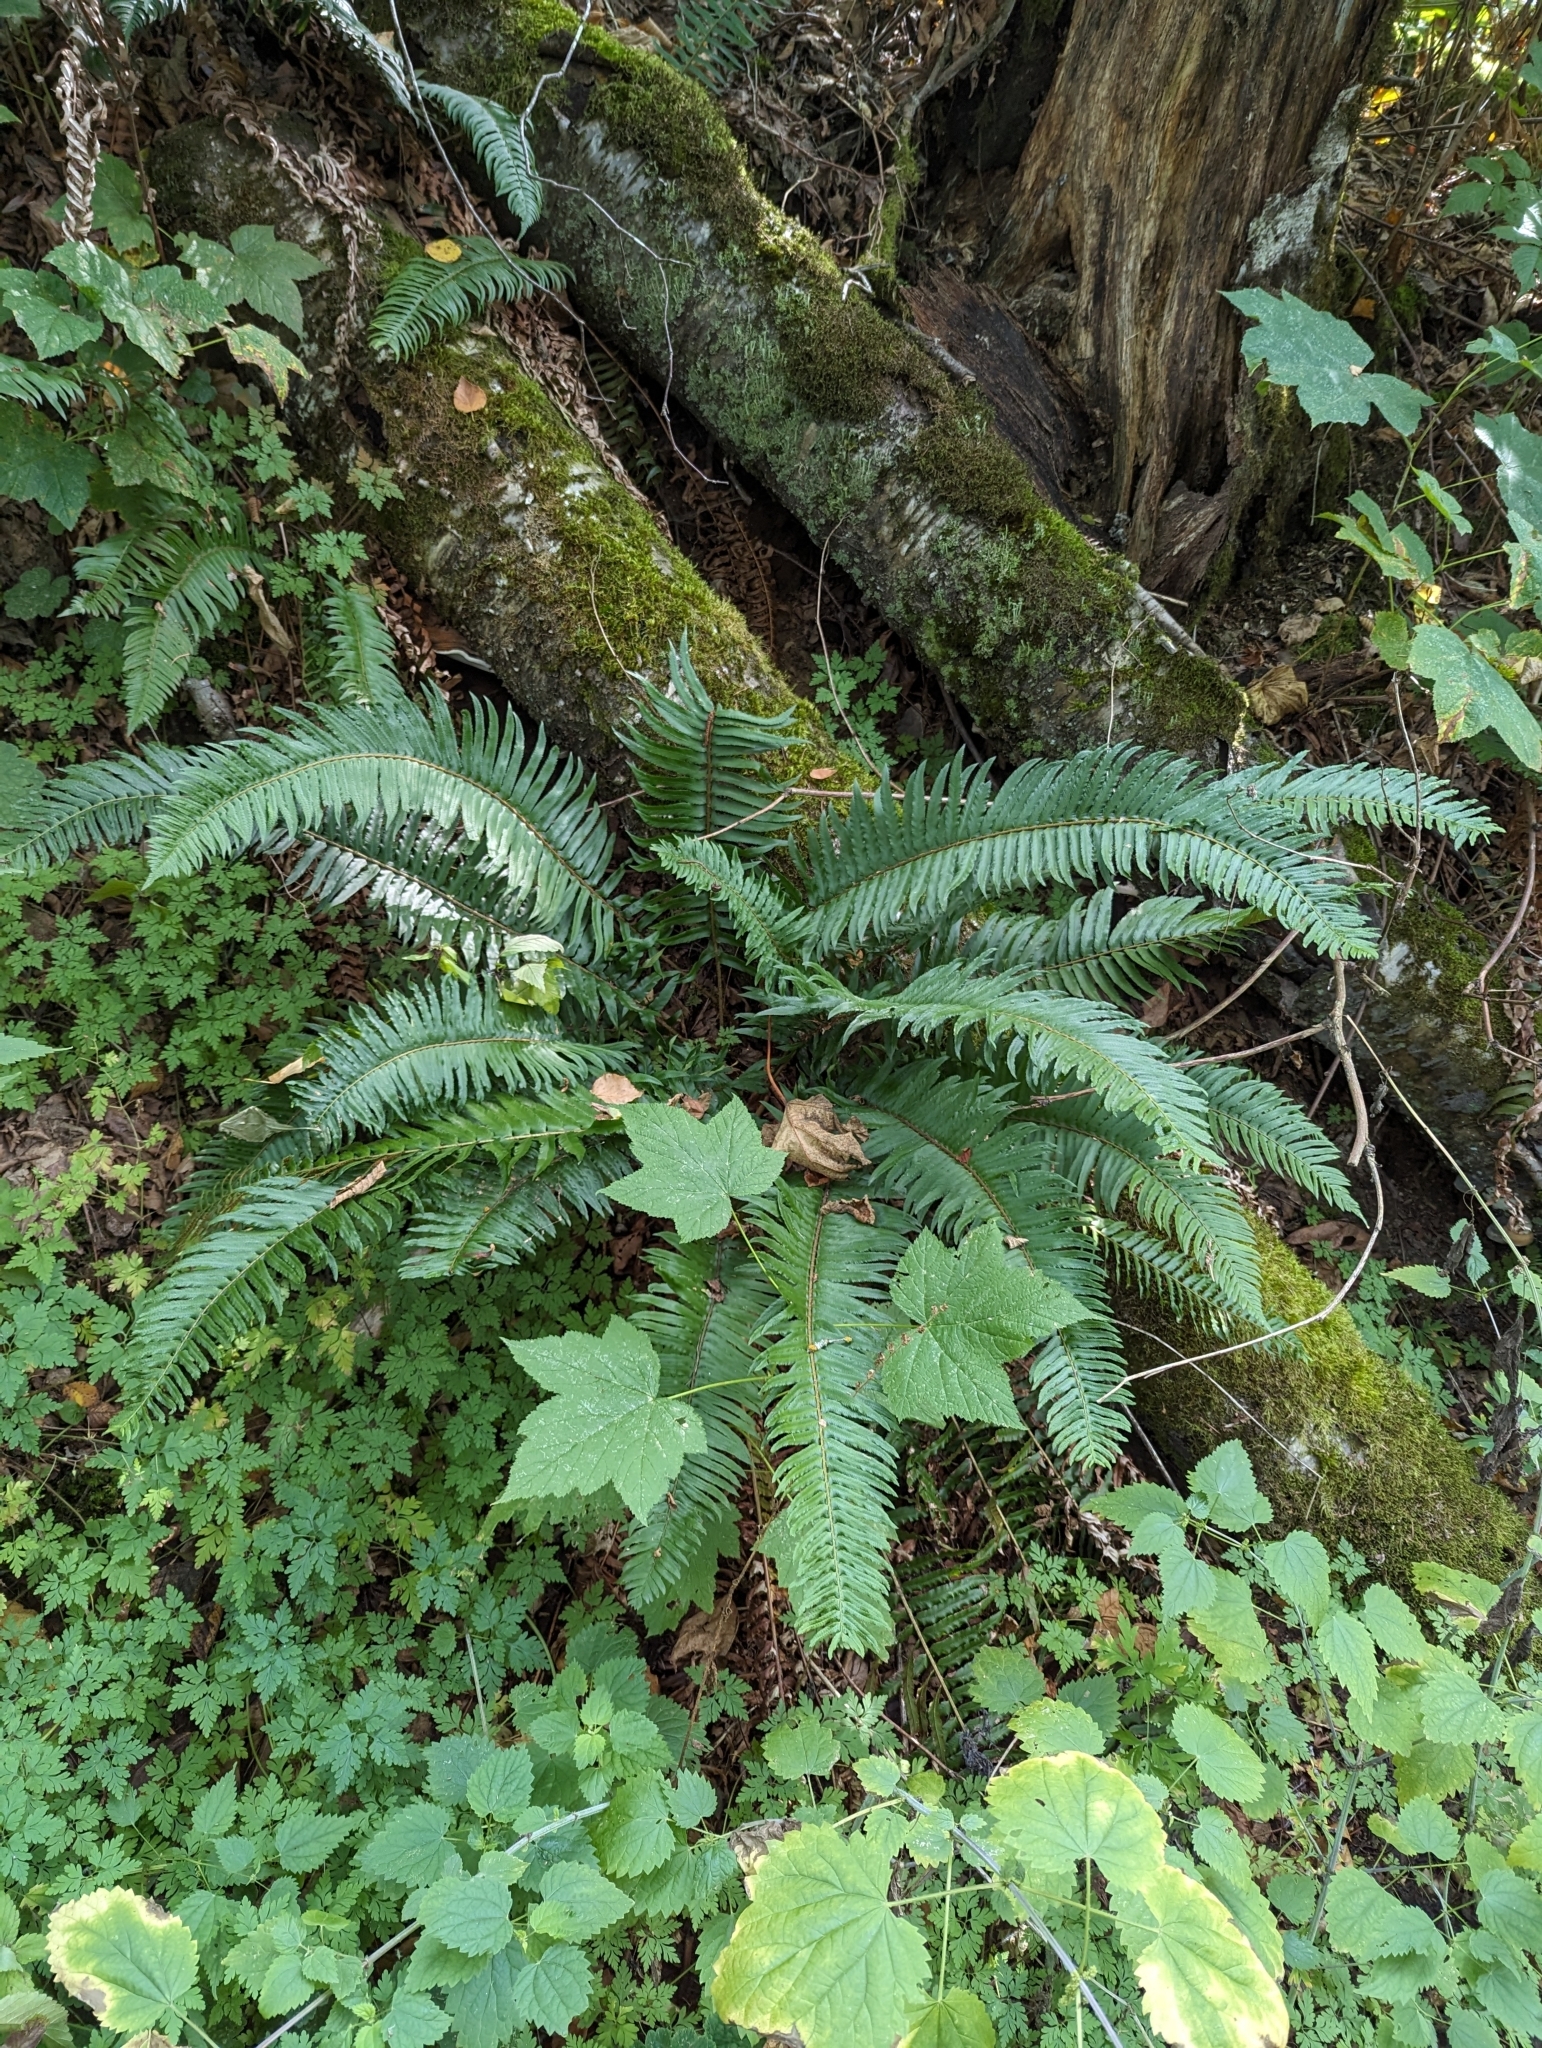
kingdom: Plantae
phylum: Tracheophyta
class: Polypodiopsida
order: Polypodiales
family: Dryopteridaceae
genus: Polystichum
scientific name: Polystichum munitum
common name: Western sword-fern
